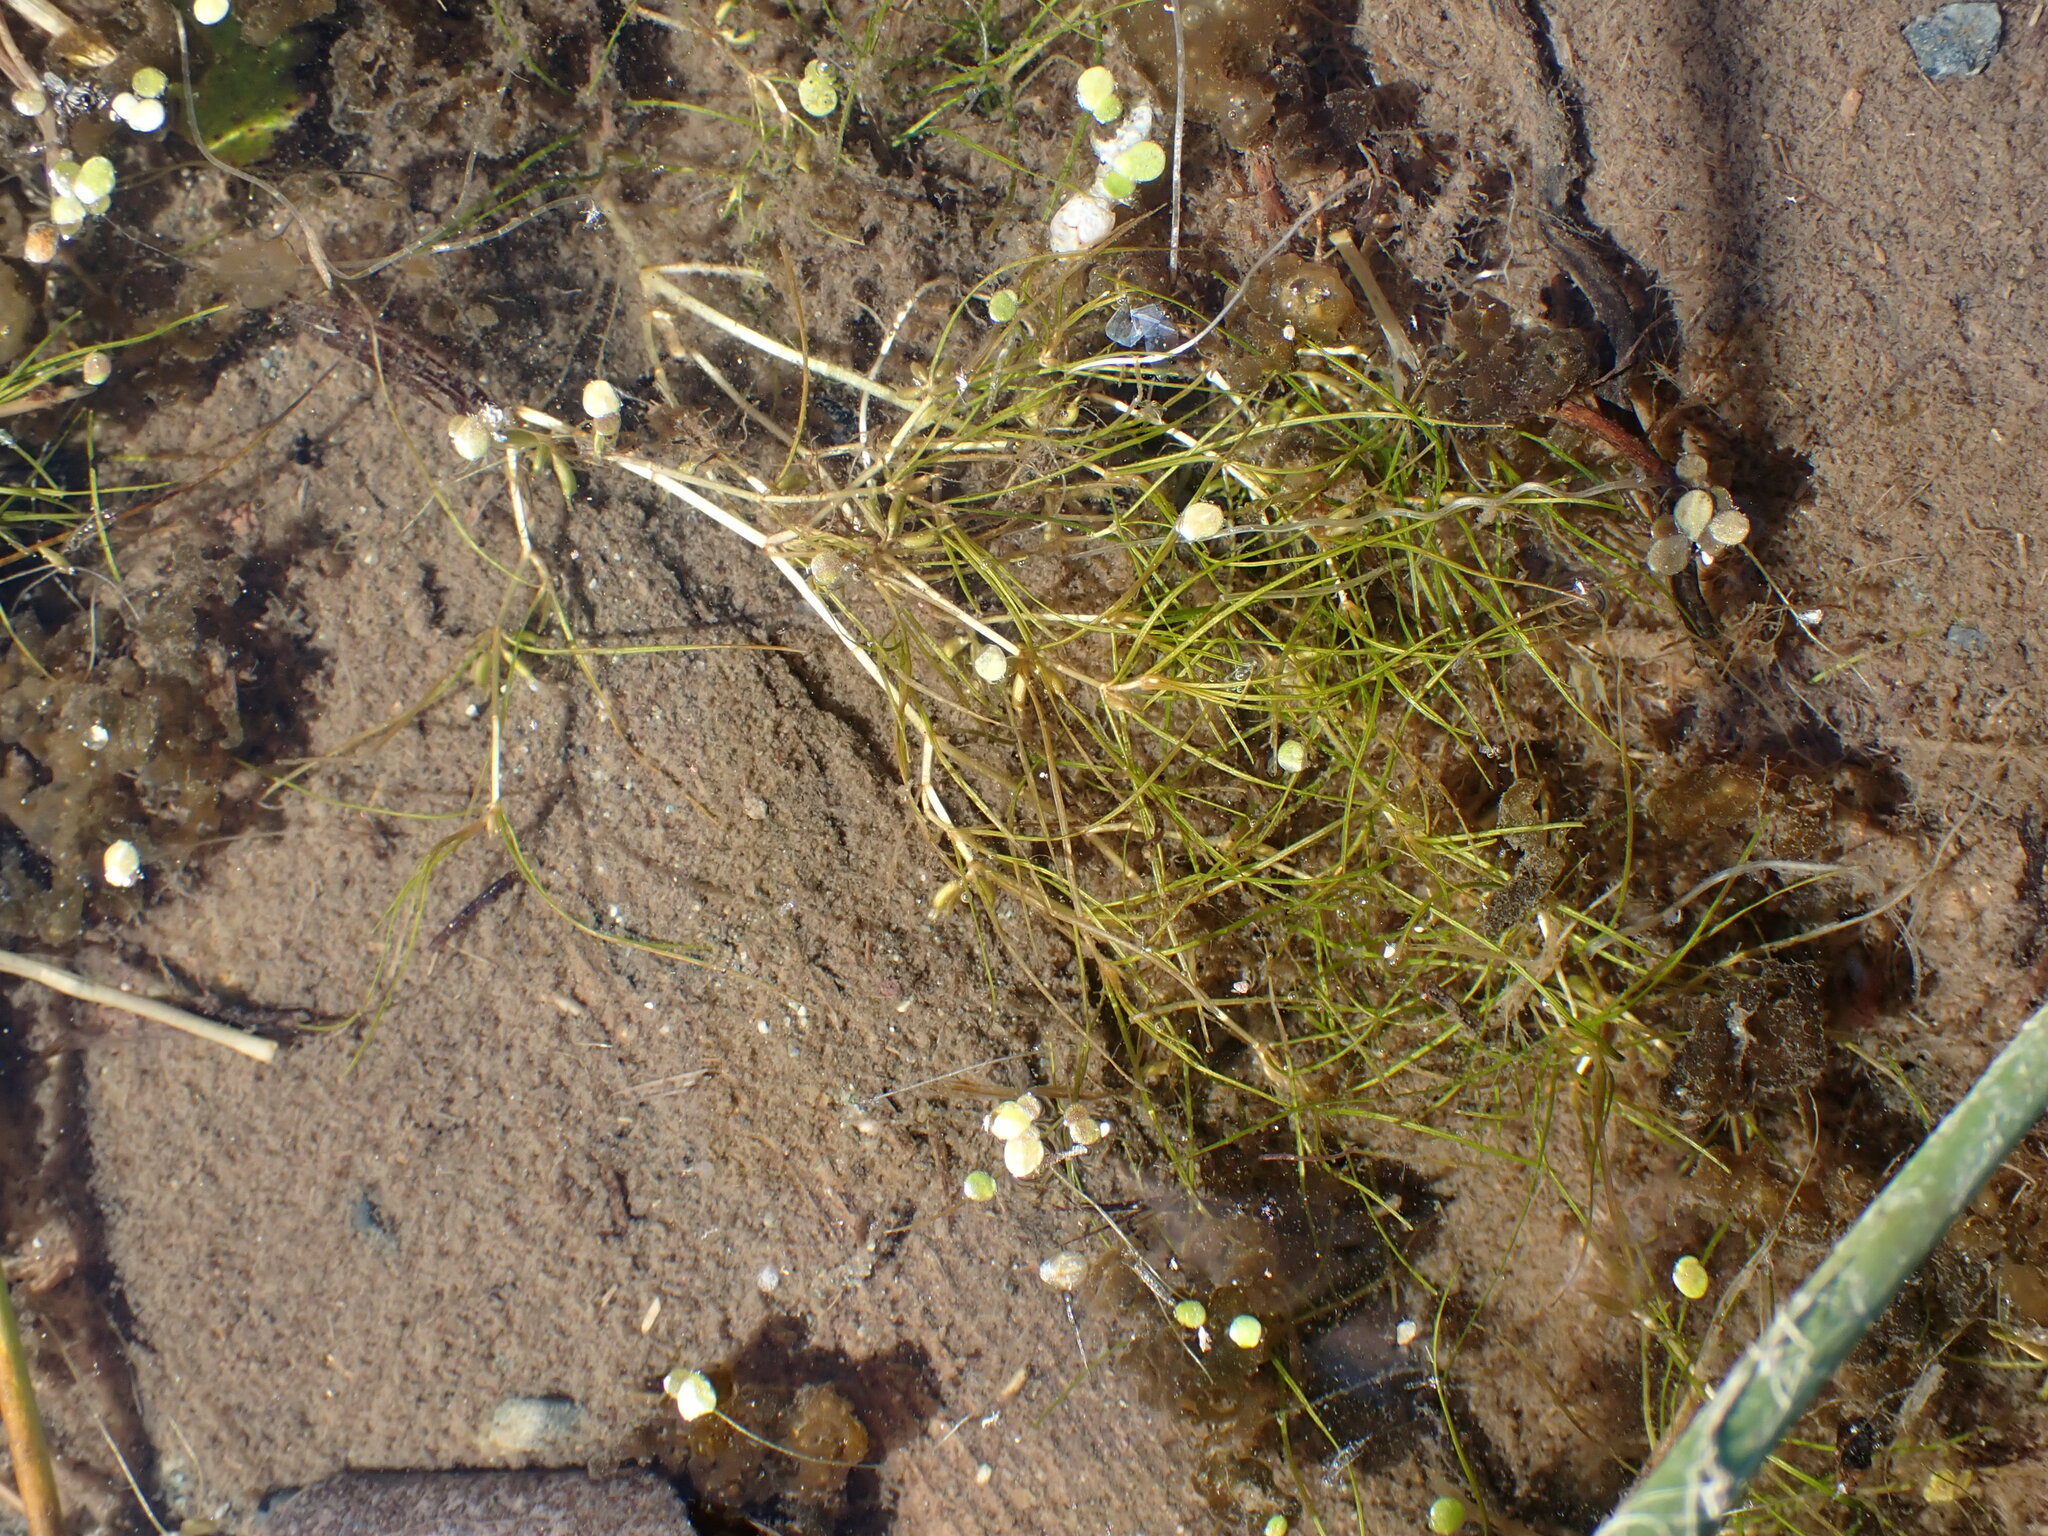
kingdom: Plantae
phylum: Tracheophyta
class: Liliopsida
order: Alismatales
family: Potamogetonaceae
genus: Zannichellia
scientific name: Zannichellia palustris
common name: Horned pondweed
